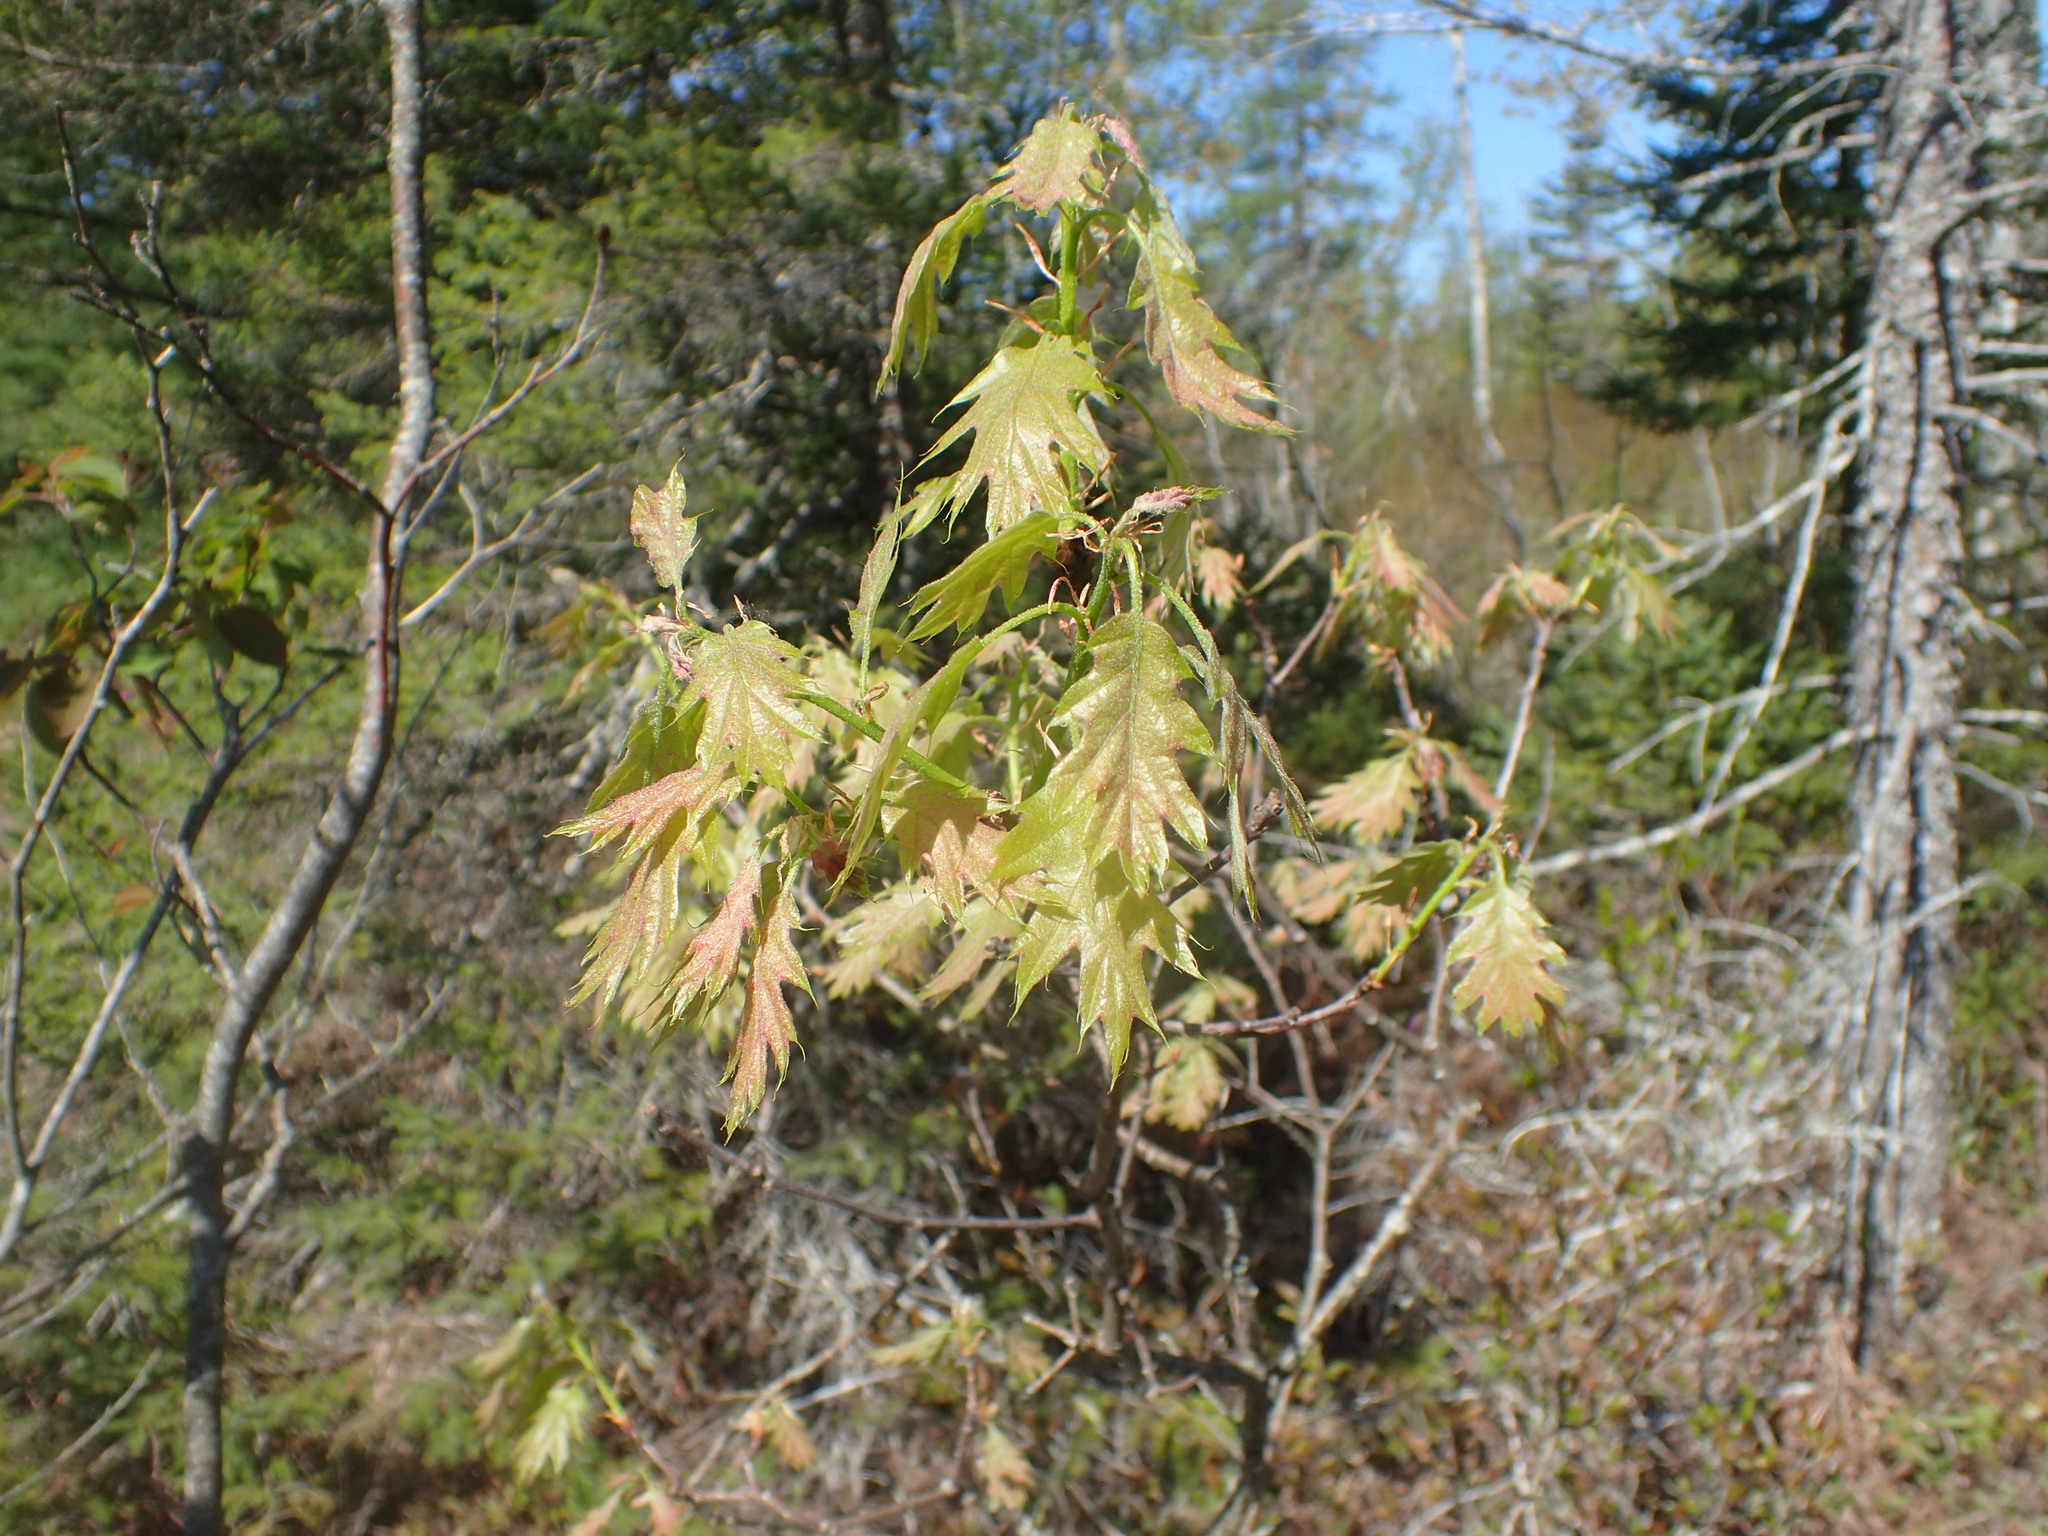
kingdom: Plantae
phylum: Tracheophyta
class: Magnoliopsida
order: Fagales
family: Fagaceae
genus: Quercus
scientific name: Quercus rubra
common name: Red oak
